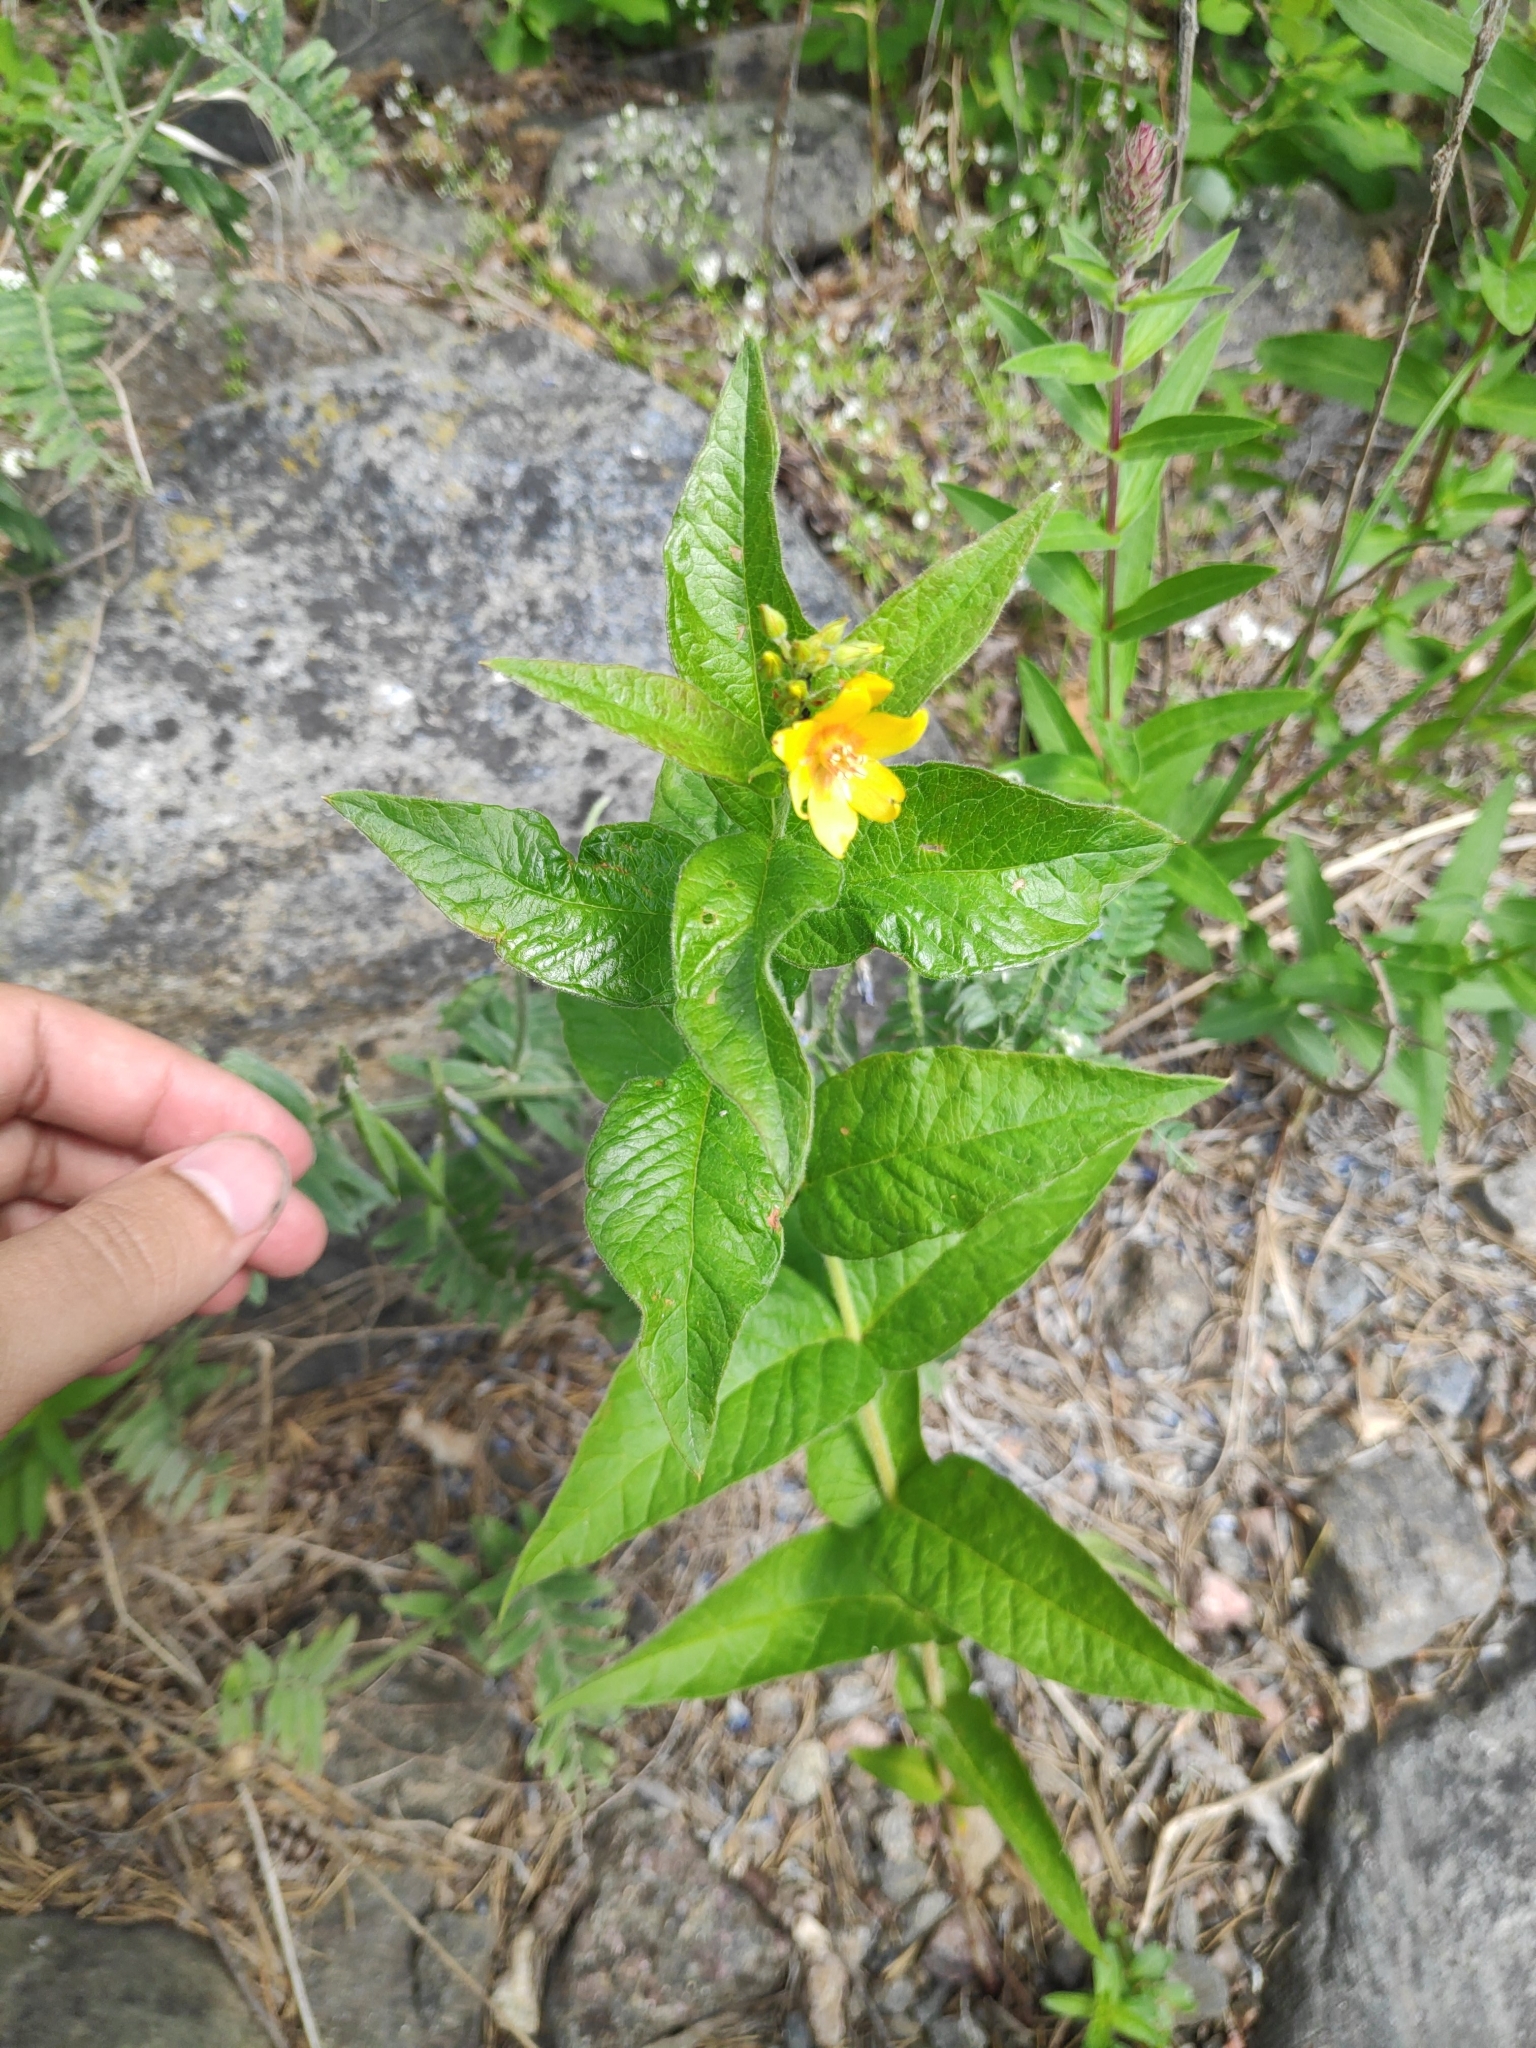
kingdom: Plantae
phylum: Tracheophyta
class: Magnoliopsida
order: Ericales
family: Primulaceae
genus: Lysimachia
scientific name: Lysimachia vulgaris
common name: Yellow loosestrife
